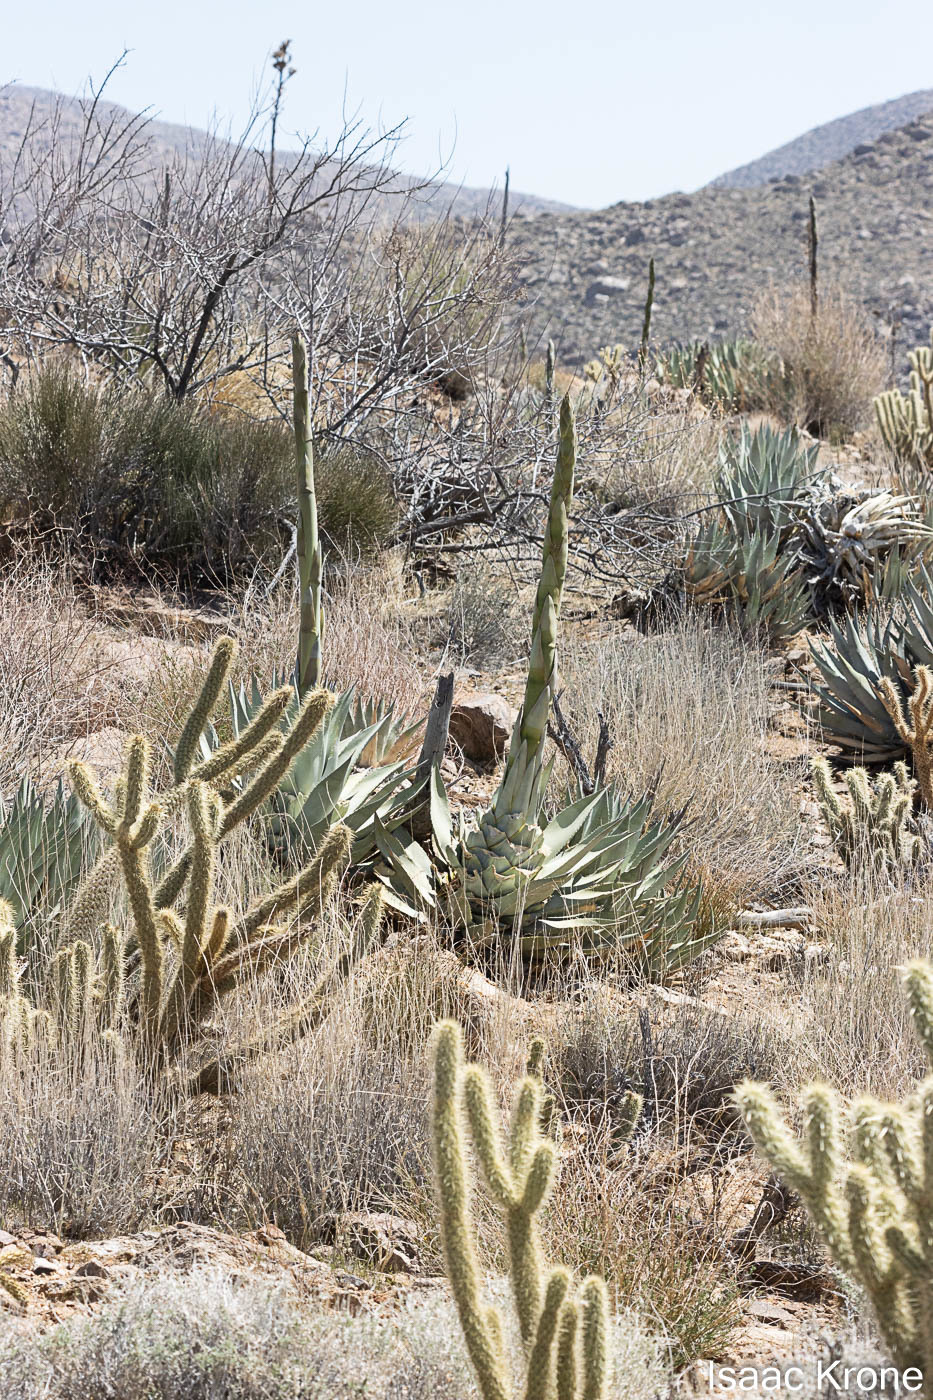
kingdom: Plantae
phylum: Tracheophyta
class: Liliopsida
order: Asparagales
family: Asparagaceae
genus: Agave
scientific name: Agave deserti
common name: Desert agave
